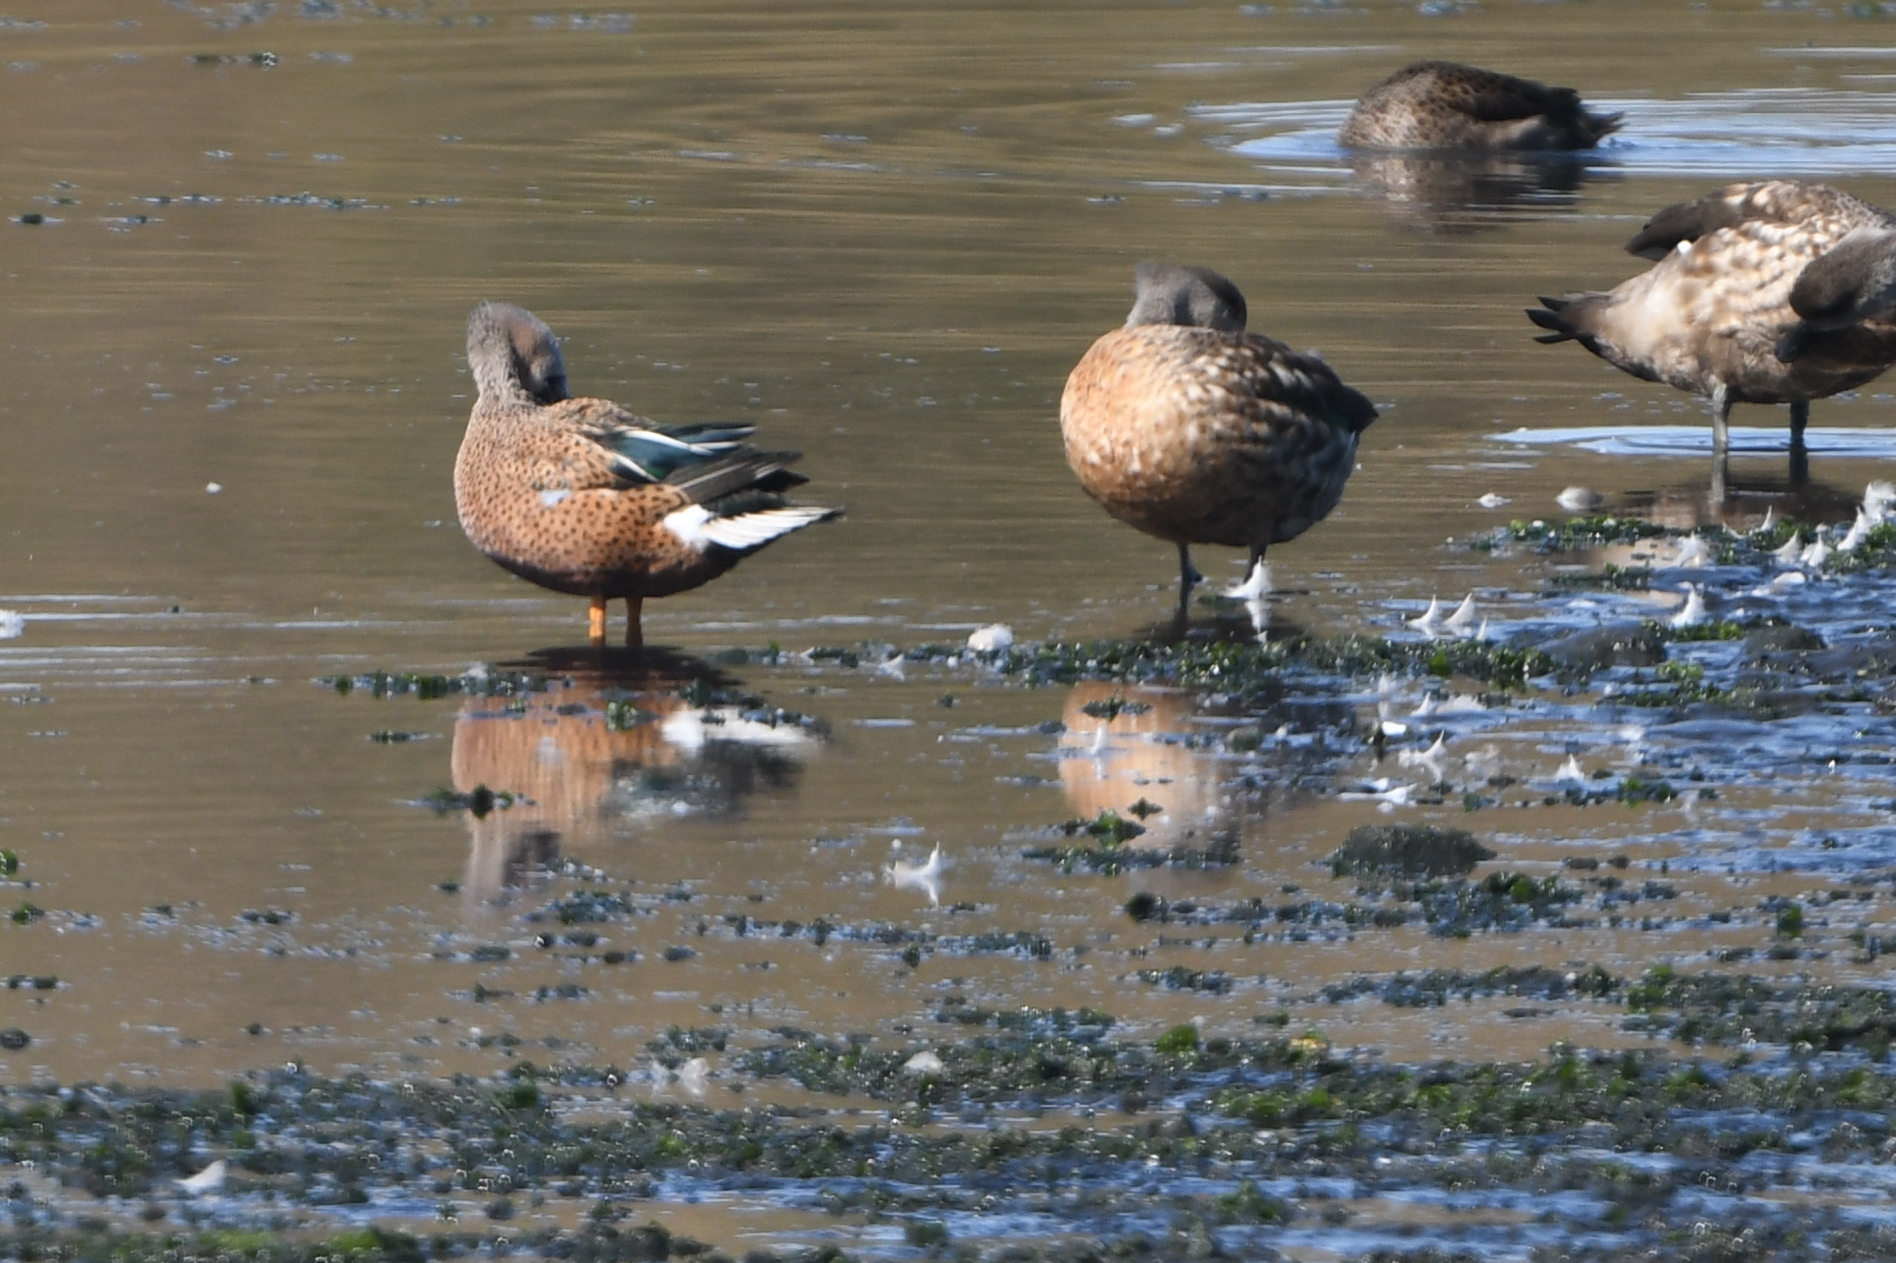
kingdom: Animalia
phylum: Chordata
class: Aves
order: Anseriformes
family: Anatidae
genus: Spatula
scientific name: Spatula platalea
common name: Red shoveler
